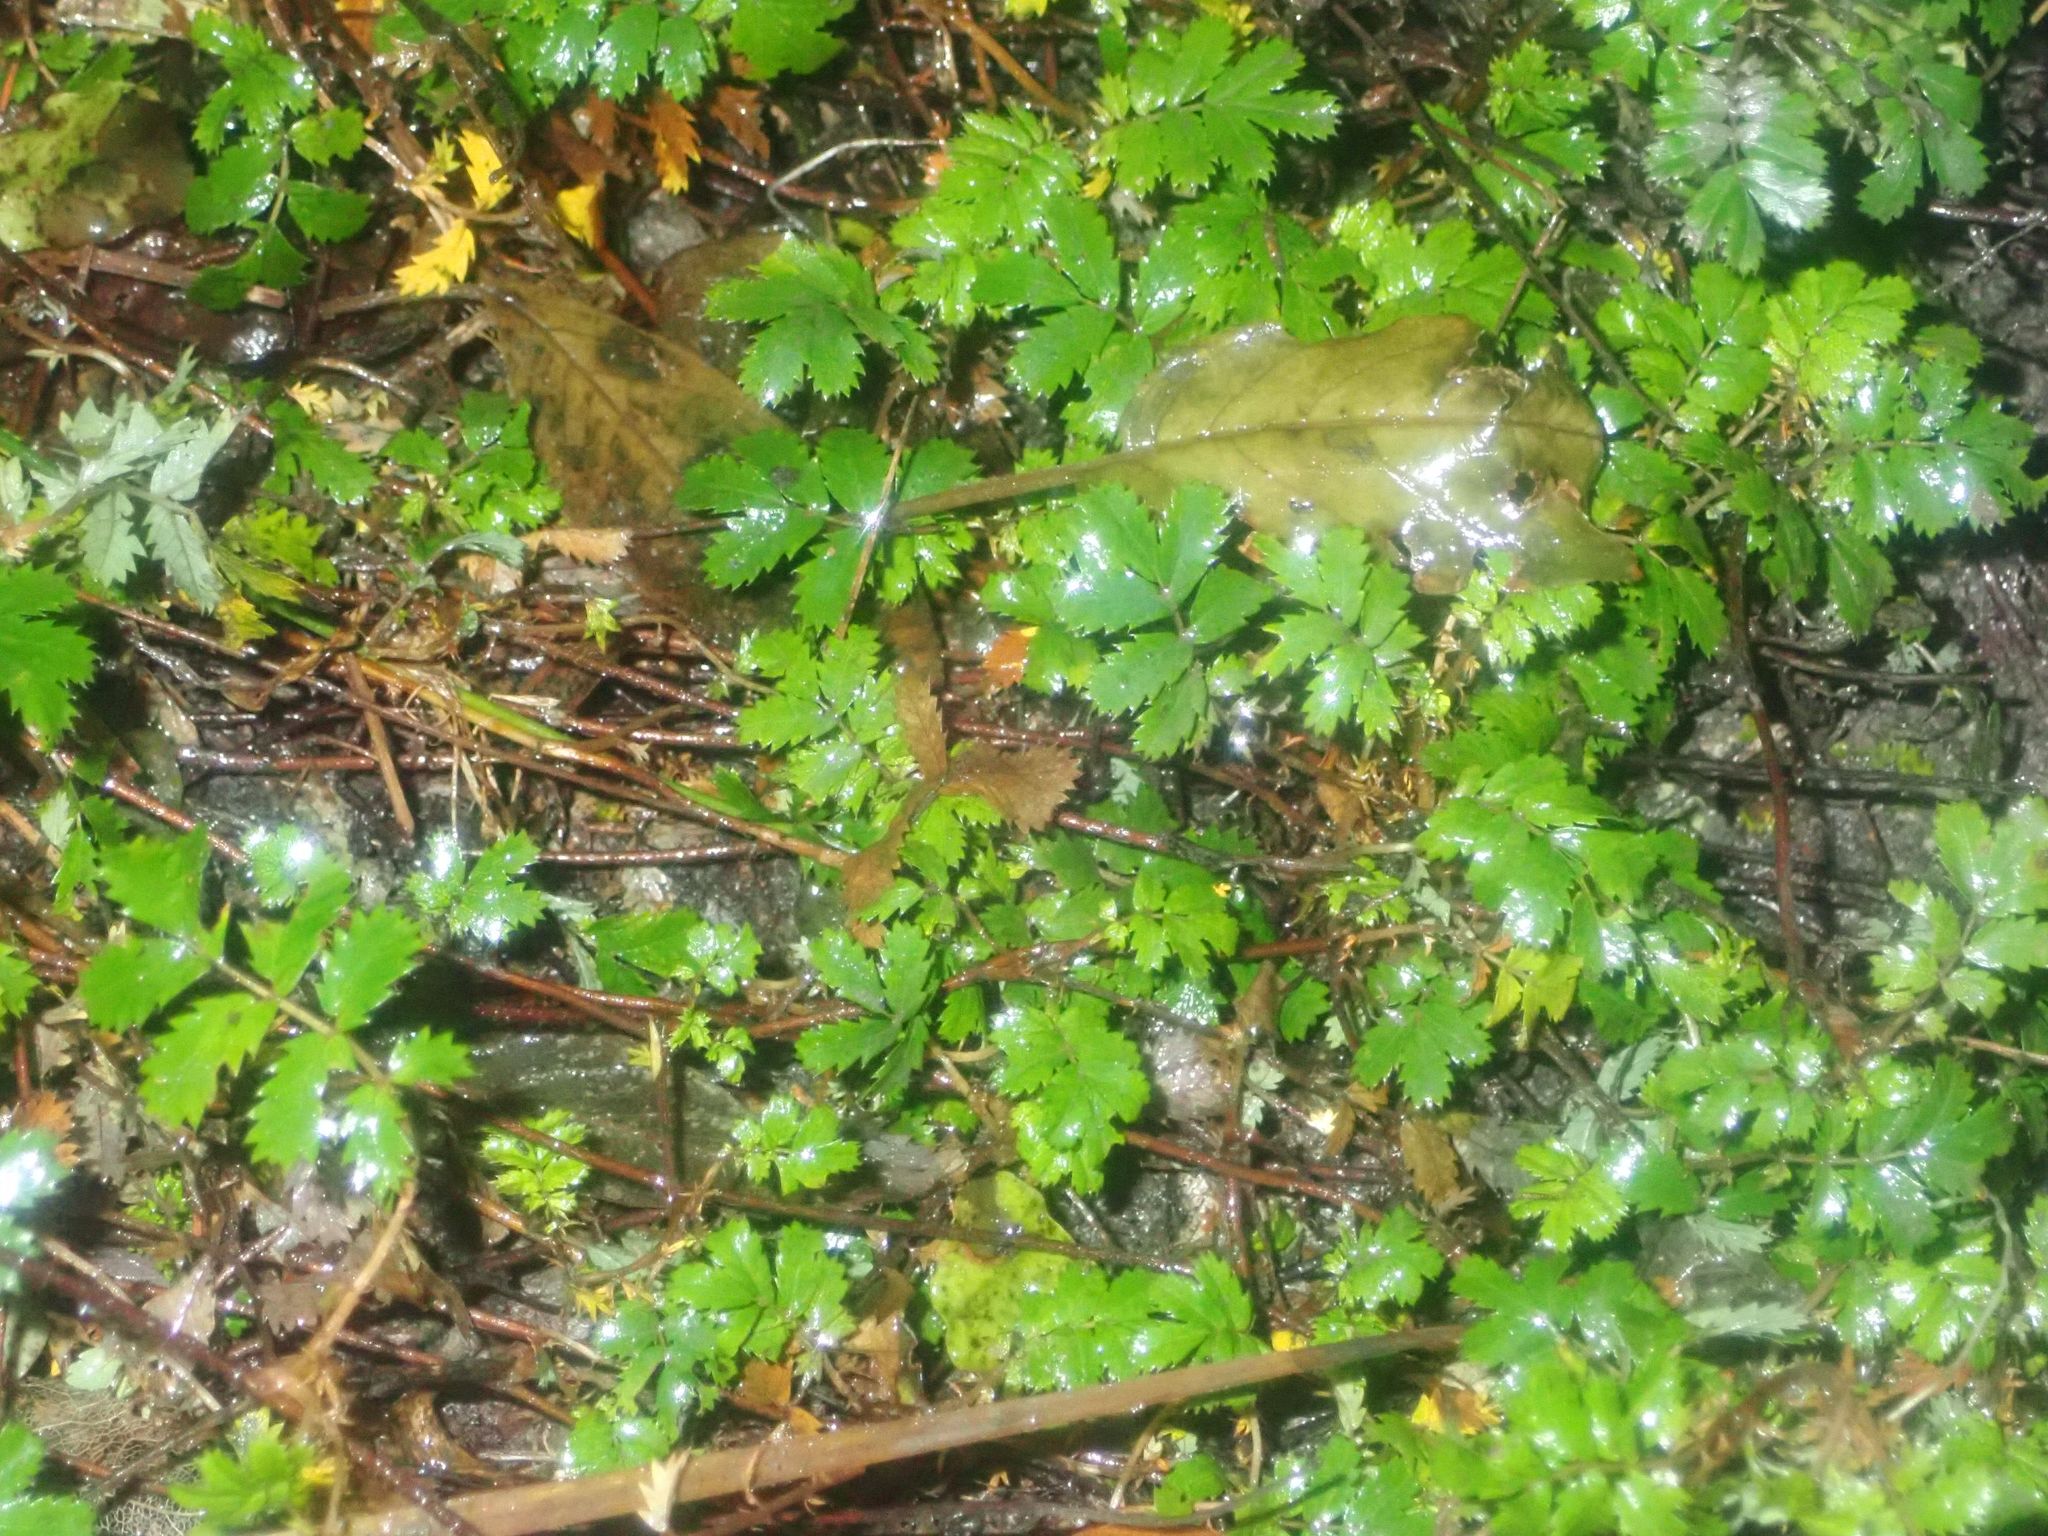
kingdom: Plantae
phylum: Tracheophyta
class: Magnoliopsida
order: Rosales
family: Rosaceae
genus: Acaena
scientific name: Acaena anserinifolia
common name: Bronze pirri-pirri-bur
